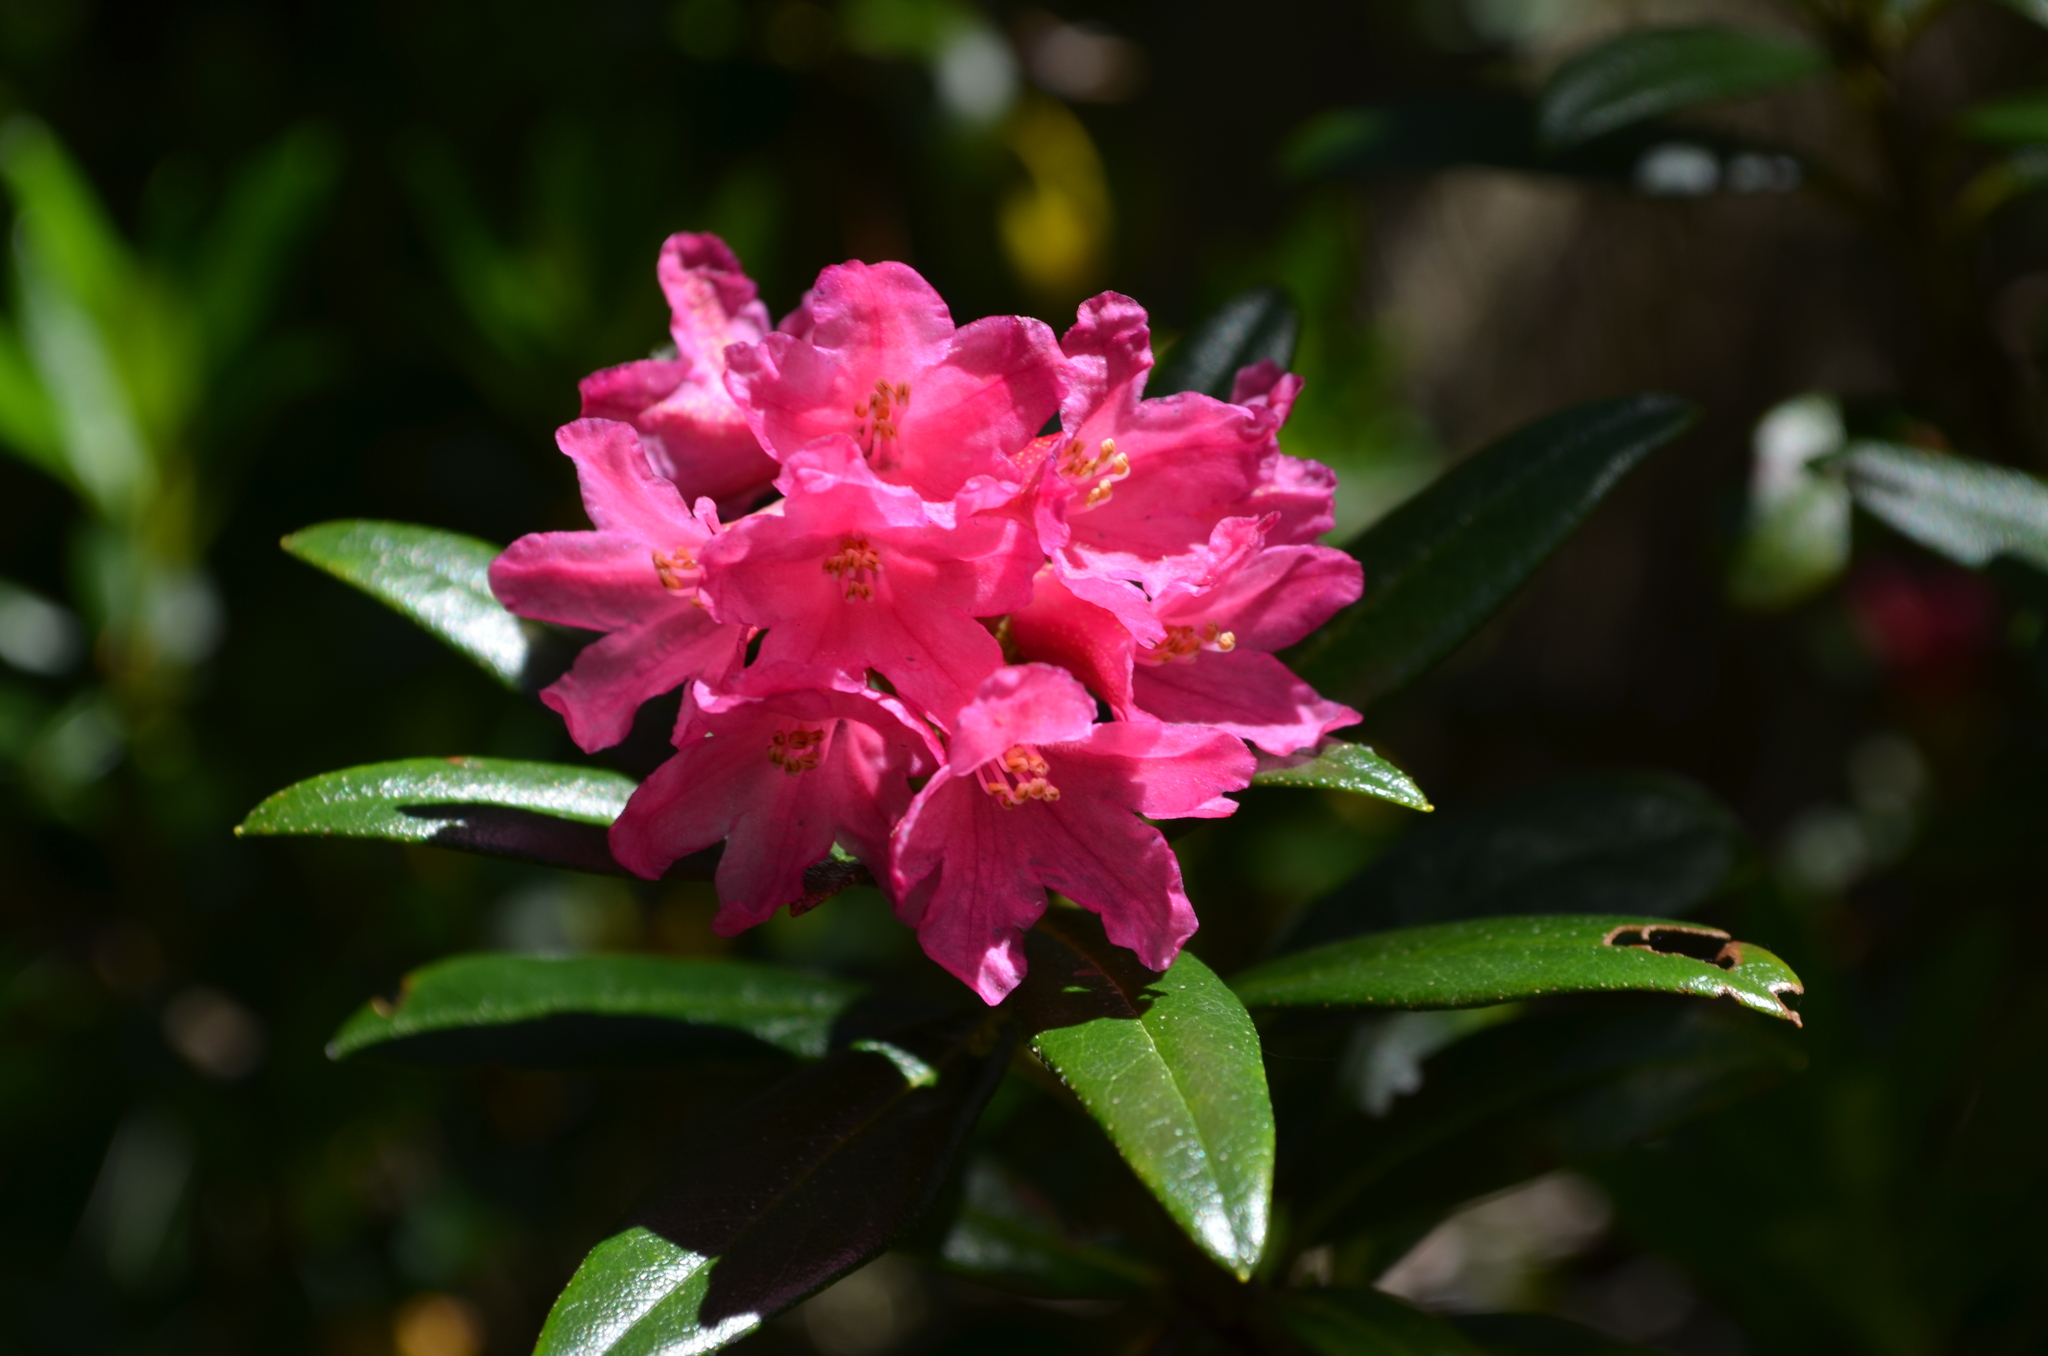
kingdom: Plantae
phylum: Tracheophyta
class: Magnoliopsida
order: Ericales
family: Ericaceae
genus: Rhododendron
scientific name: Rhododendron ferrugineum
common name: Alpenrose
